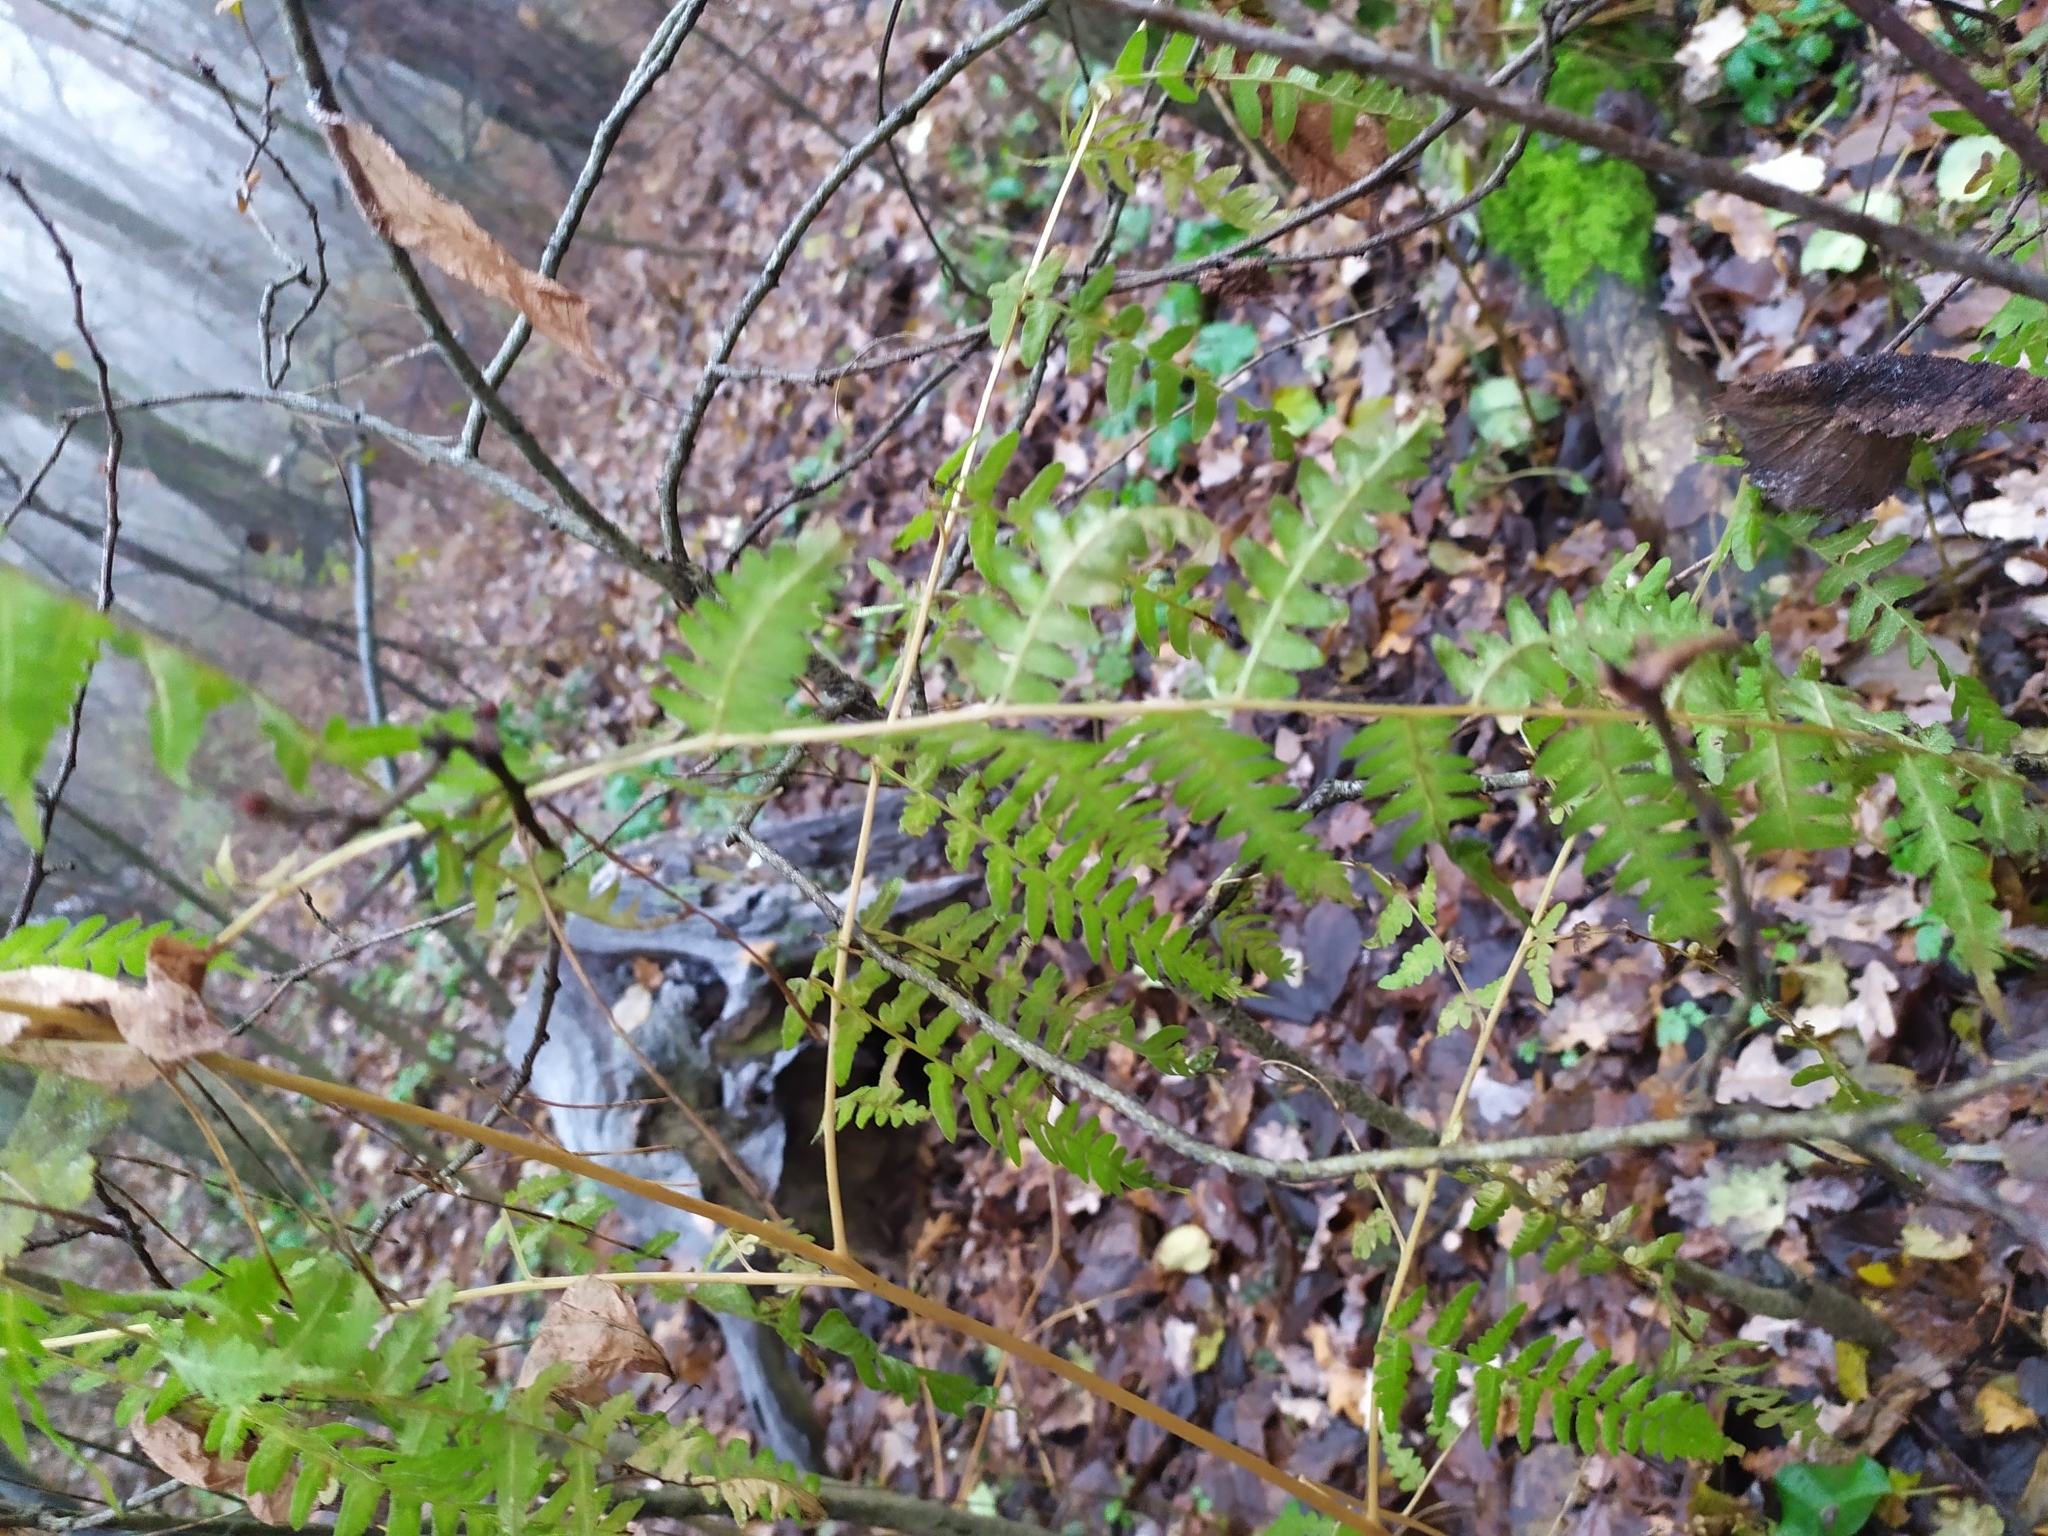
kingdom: Plantae
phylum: Tracheophyta
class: Polypodiopsida
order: Polypodiales
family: Dennstaedtiaceae
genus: Pteridium
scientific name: Pteridium aquilinum
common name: Bracken
